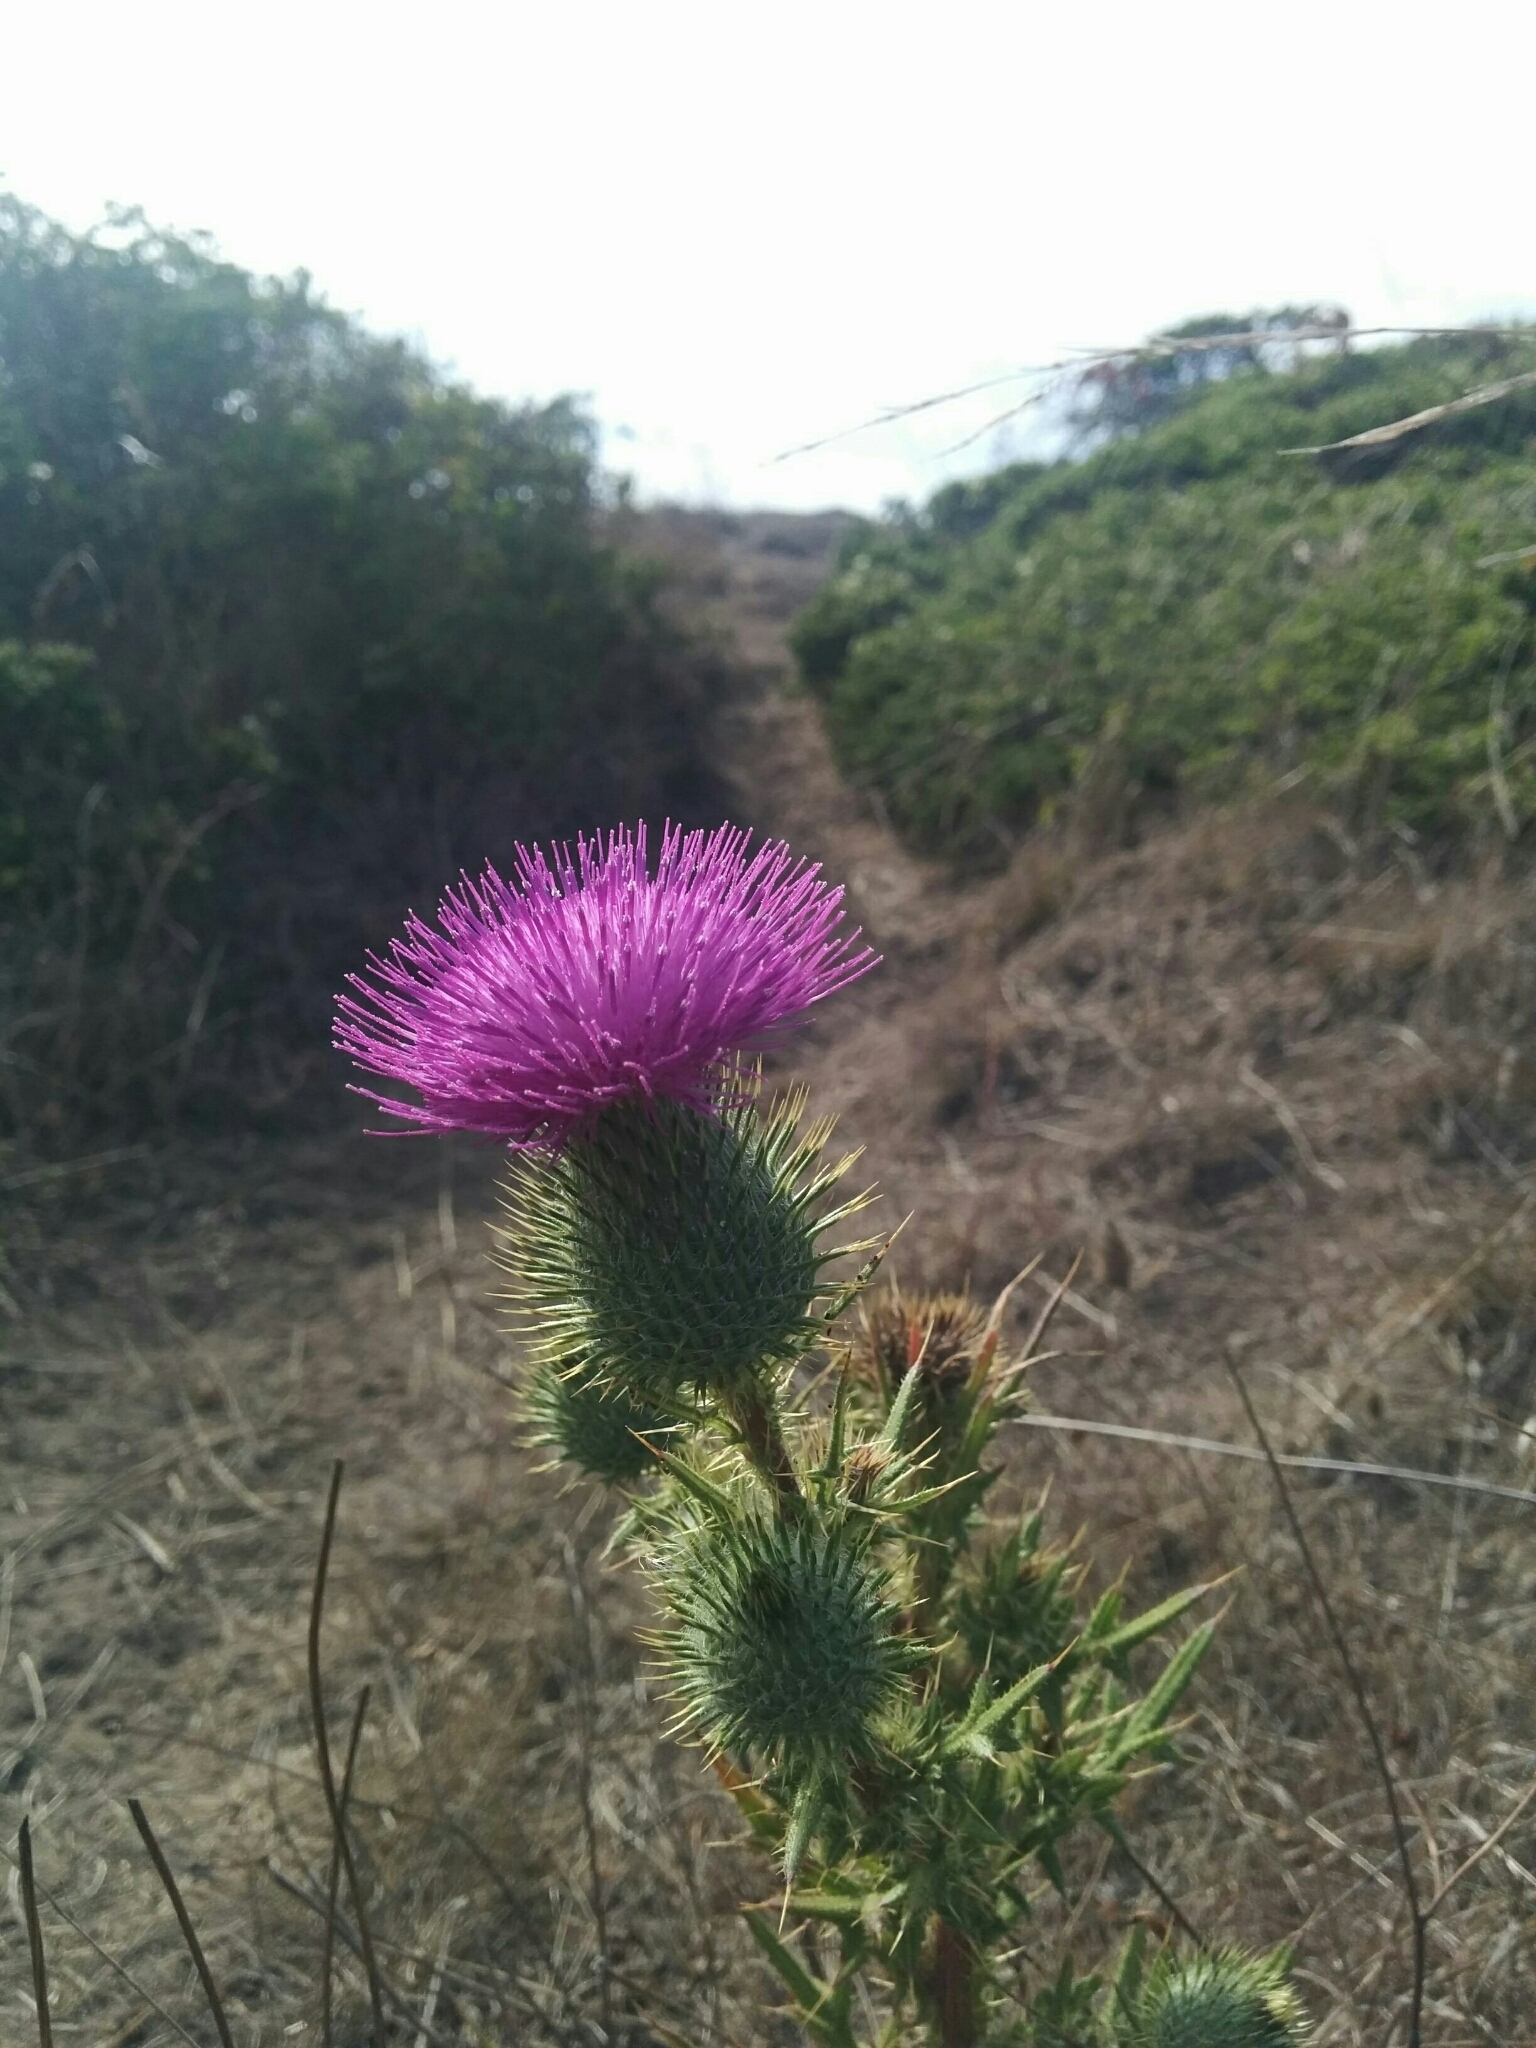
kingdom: Plantae
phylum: Tracheophyta
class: Magnoliopsida
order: Asterales
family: Asteraceae
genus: Cirsium
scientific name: Cirsium vulgare
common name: Bull thistle
